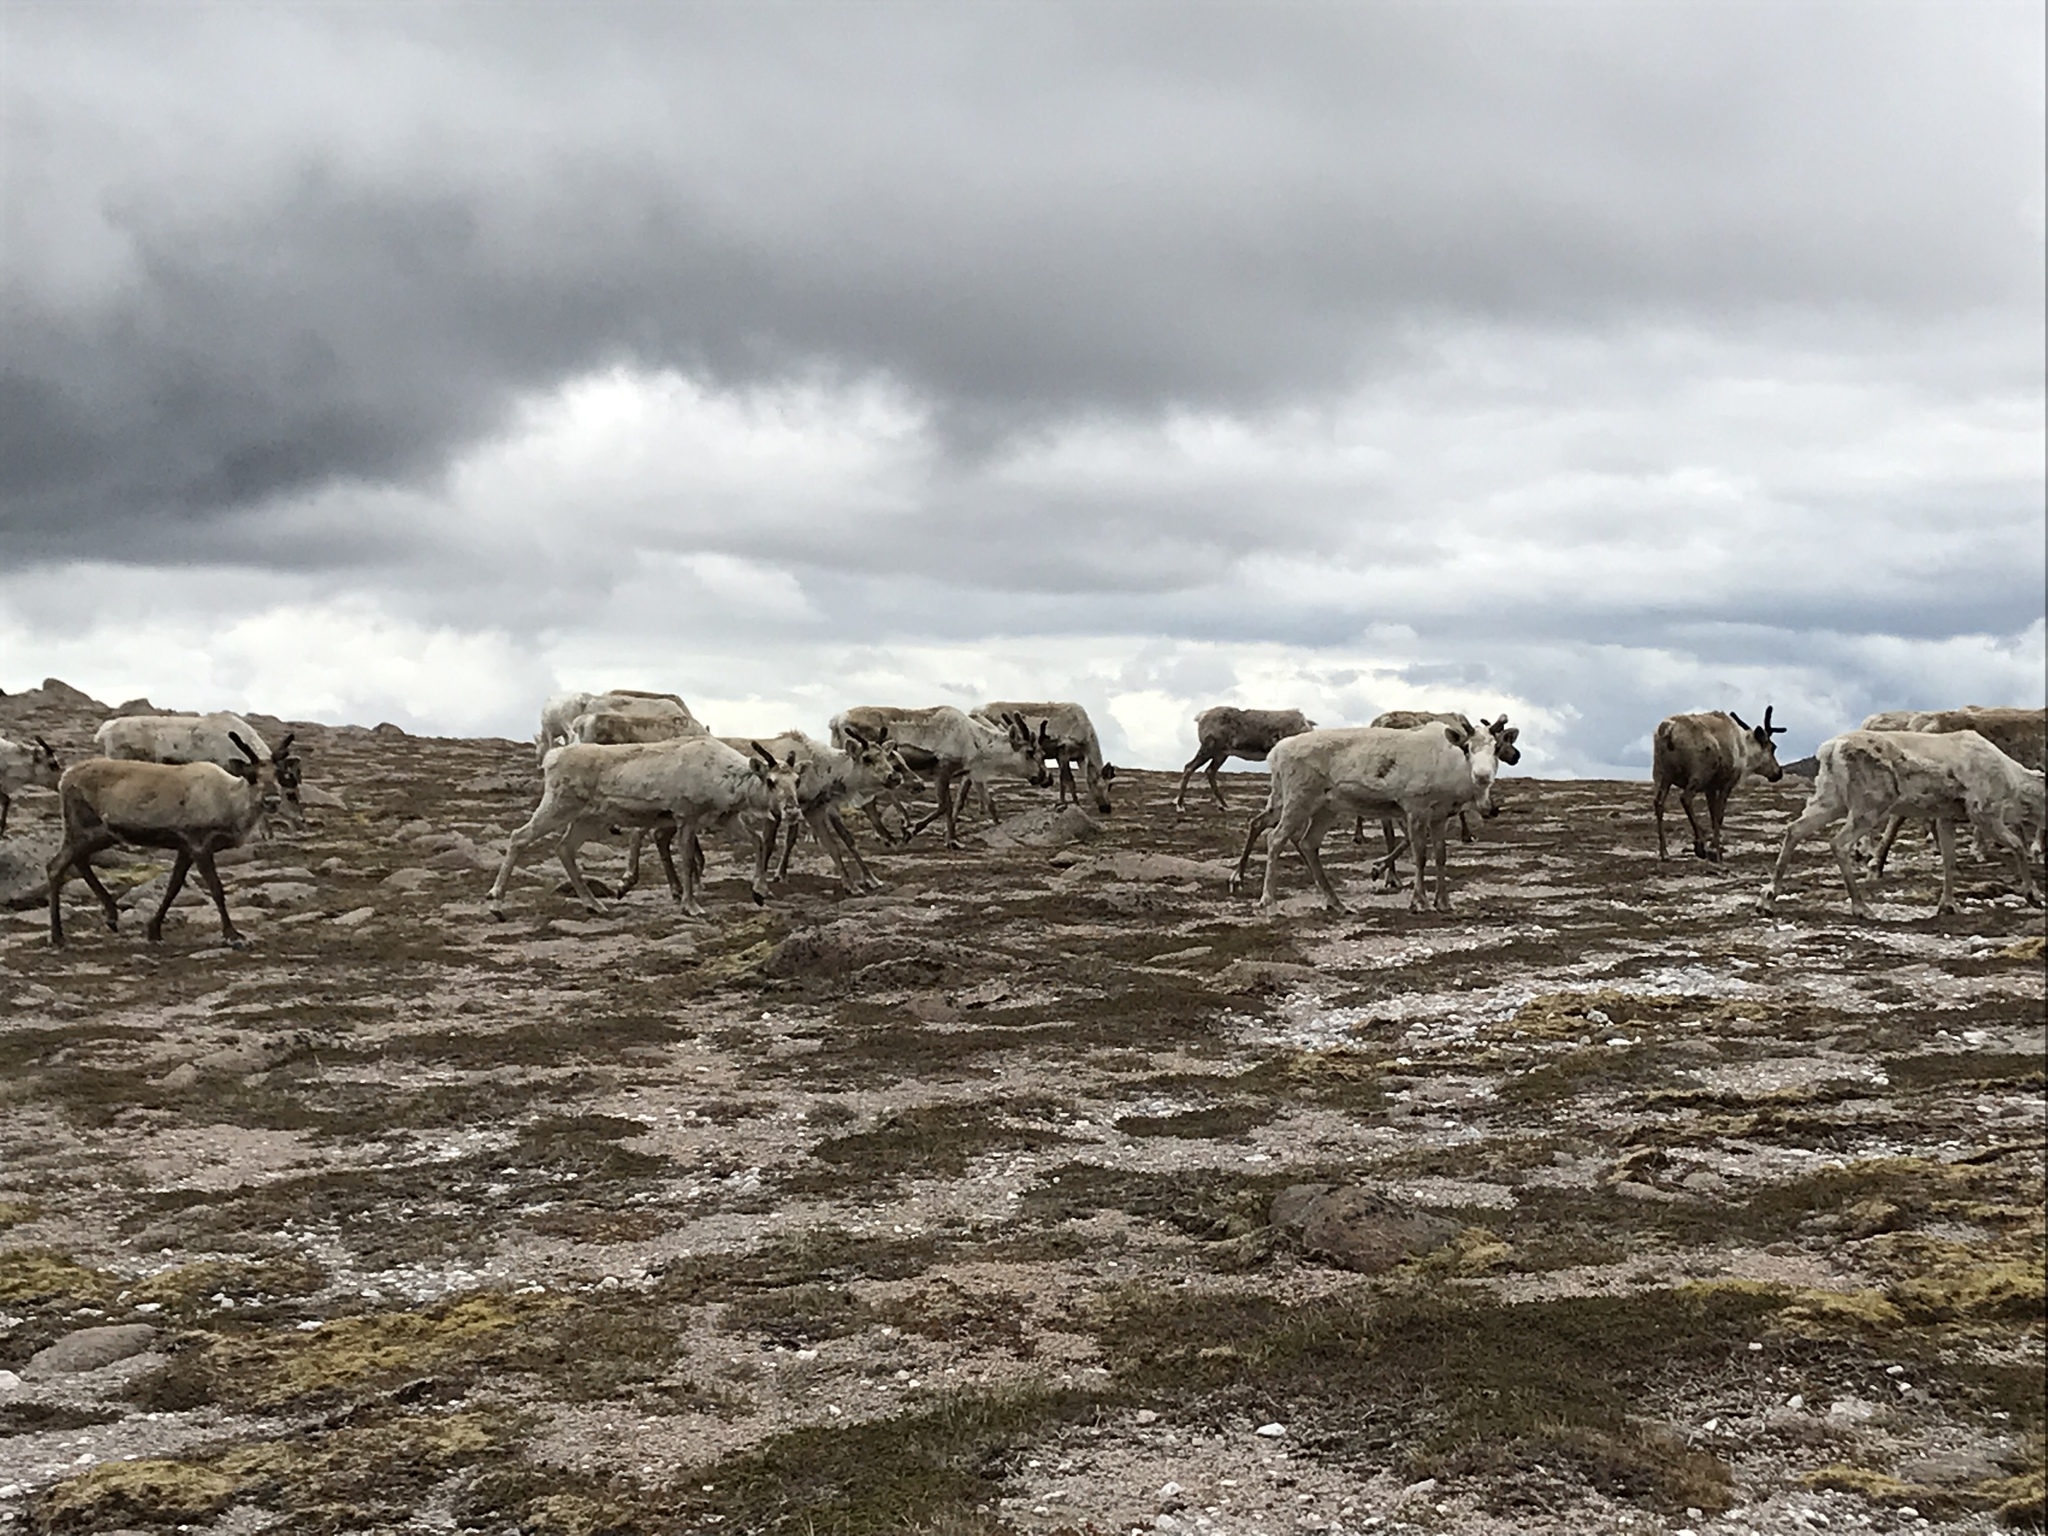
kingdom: Animalia
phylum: Chordata
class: Mammalia
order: Artiodactyla
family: Cervidae
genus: Rangifer
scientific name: Rangifer tarandus
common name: Reindeer
